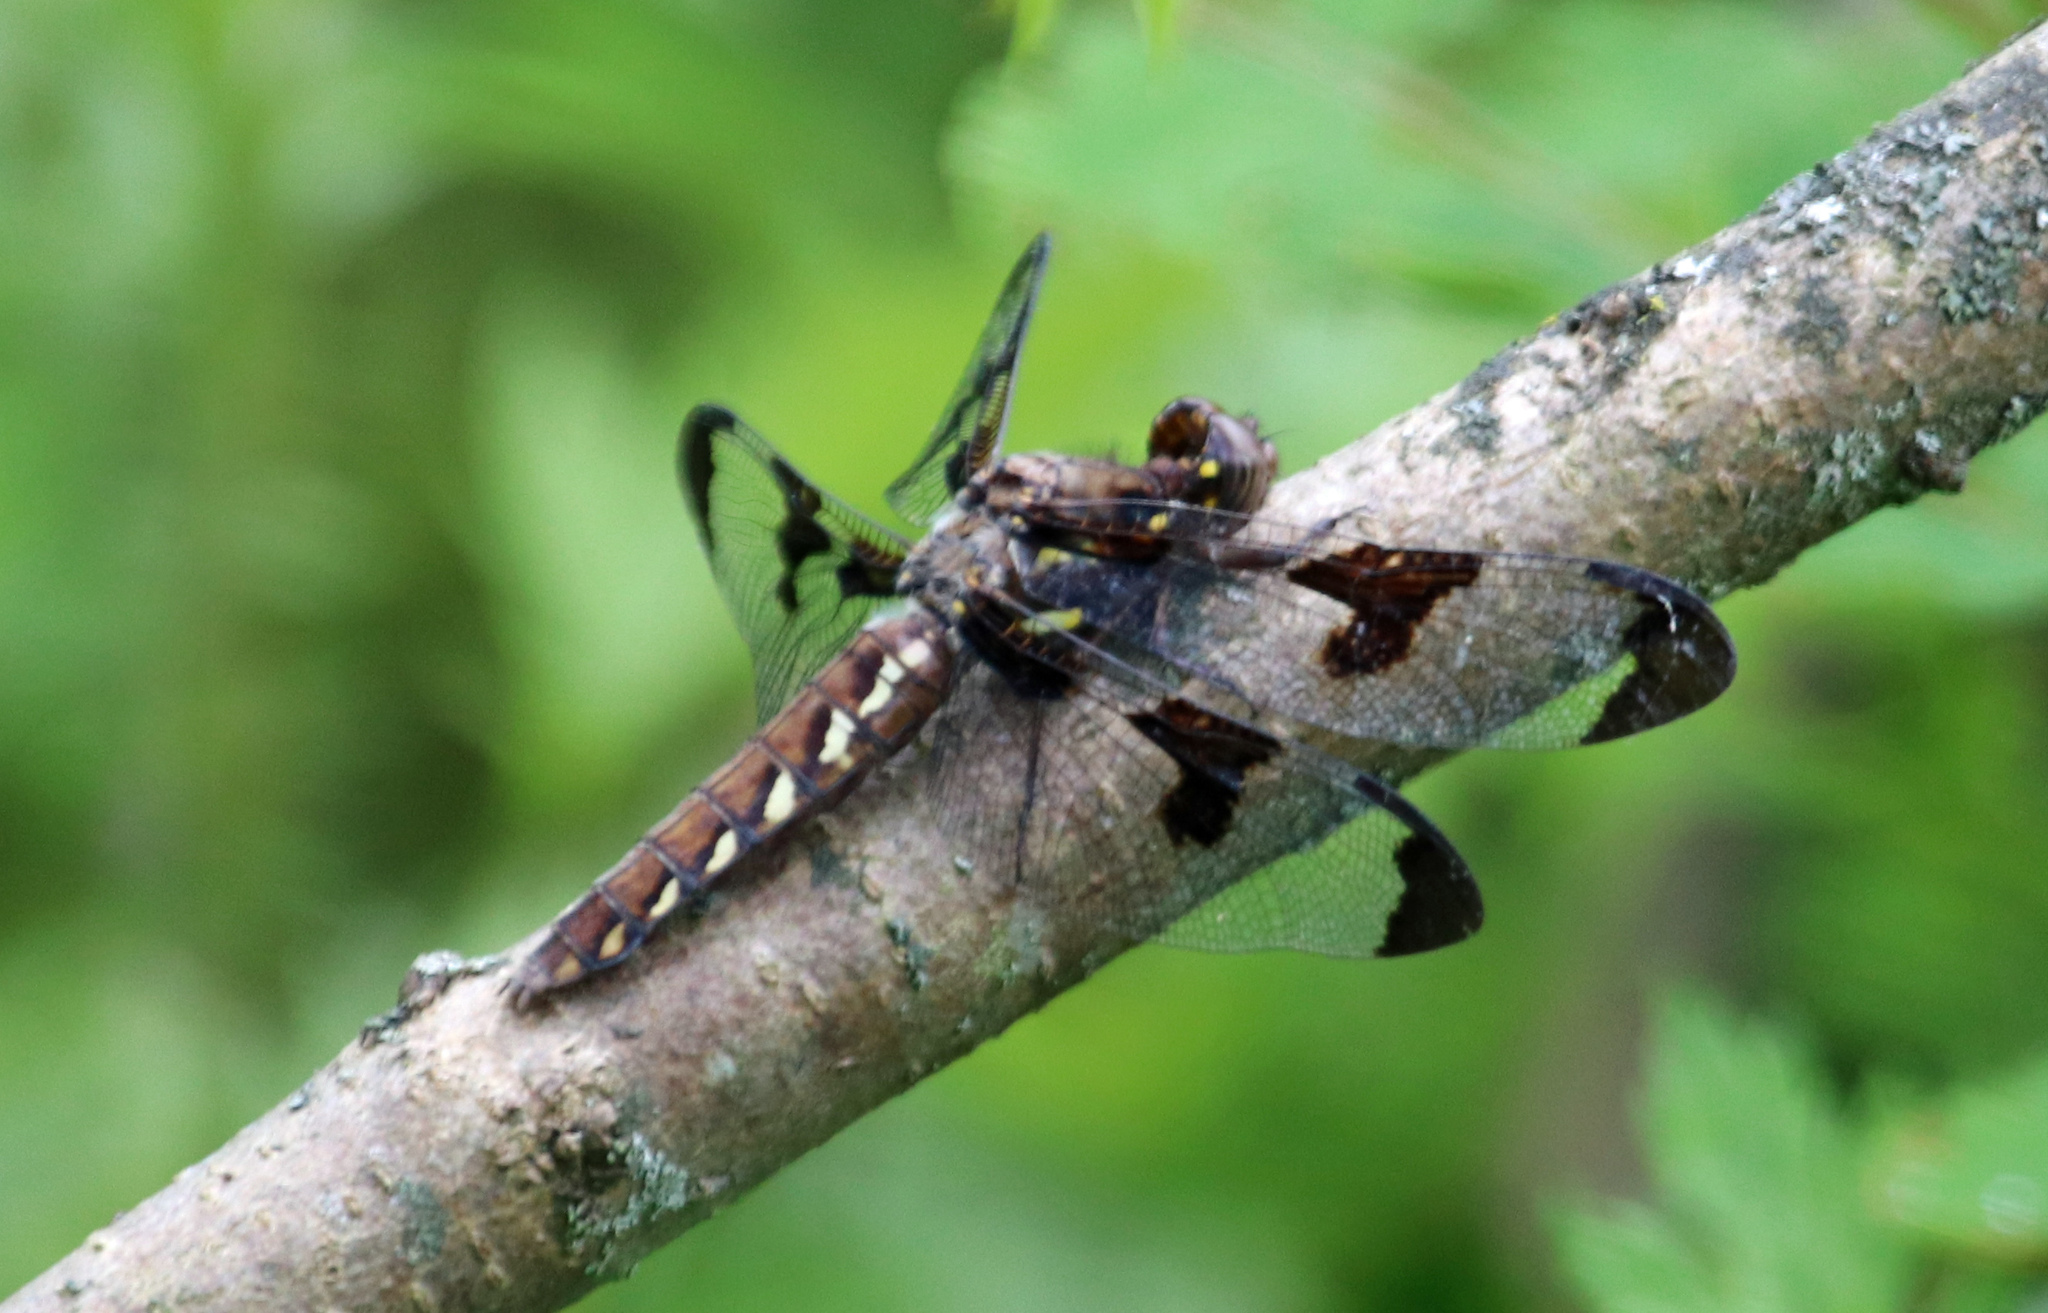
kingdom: Animalia
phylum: Arthropoda
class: Insecta
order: Odonata
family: Libellulidae
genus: Plathemis
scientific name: Plathemis lydia
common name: Common whitetail
